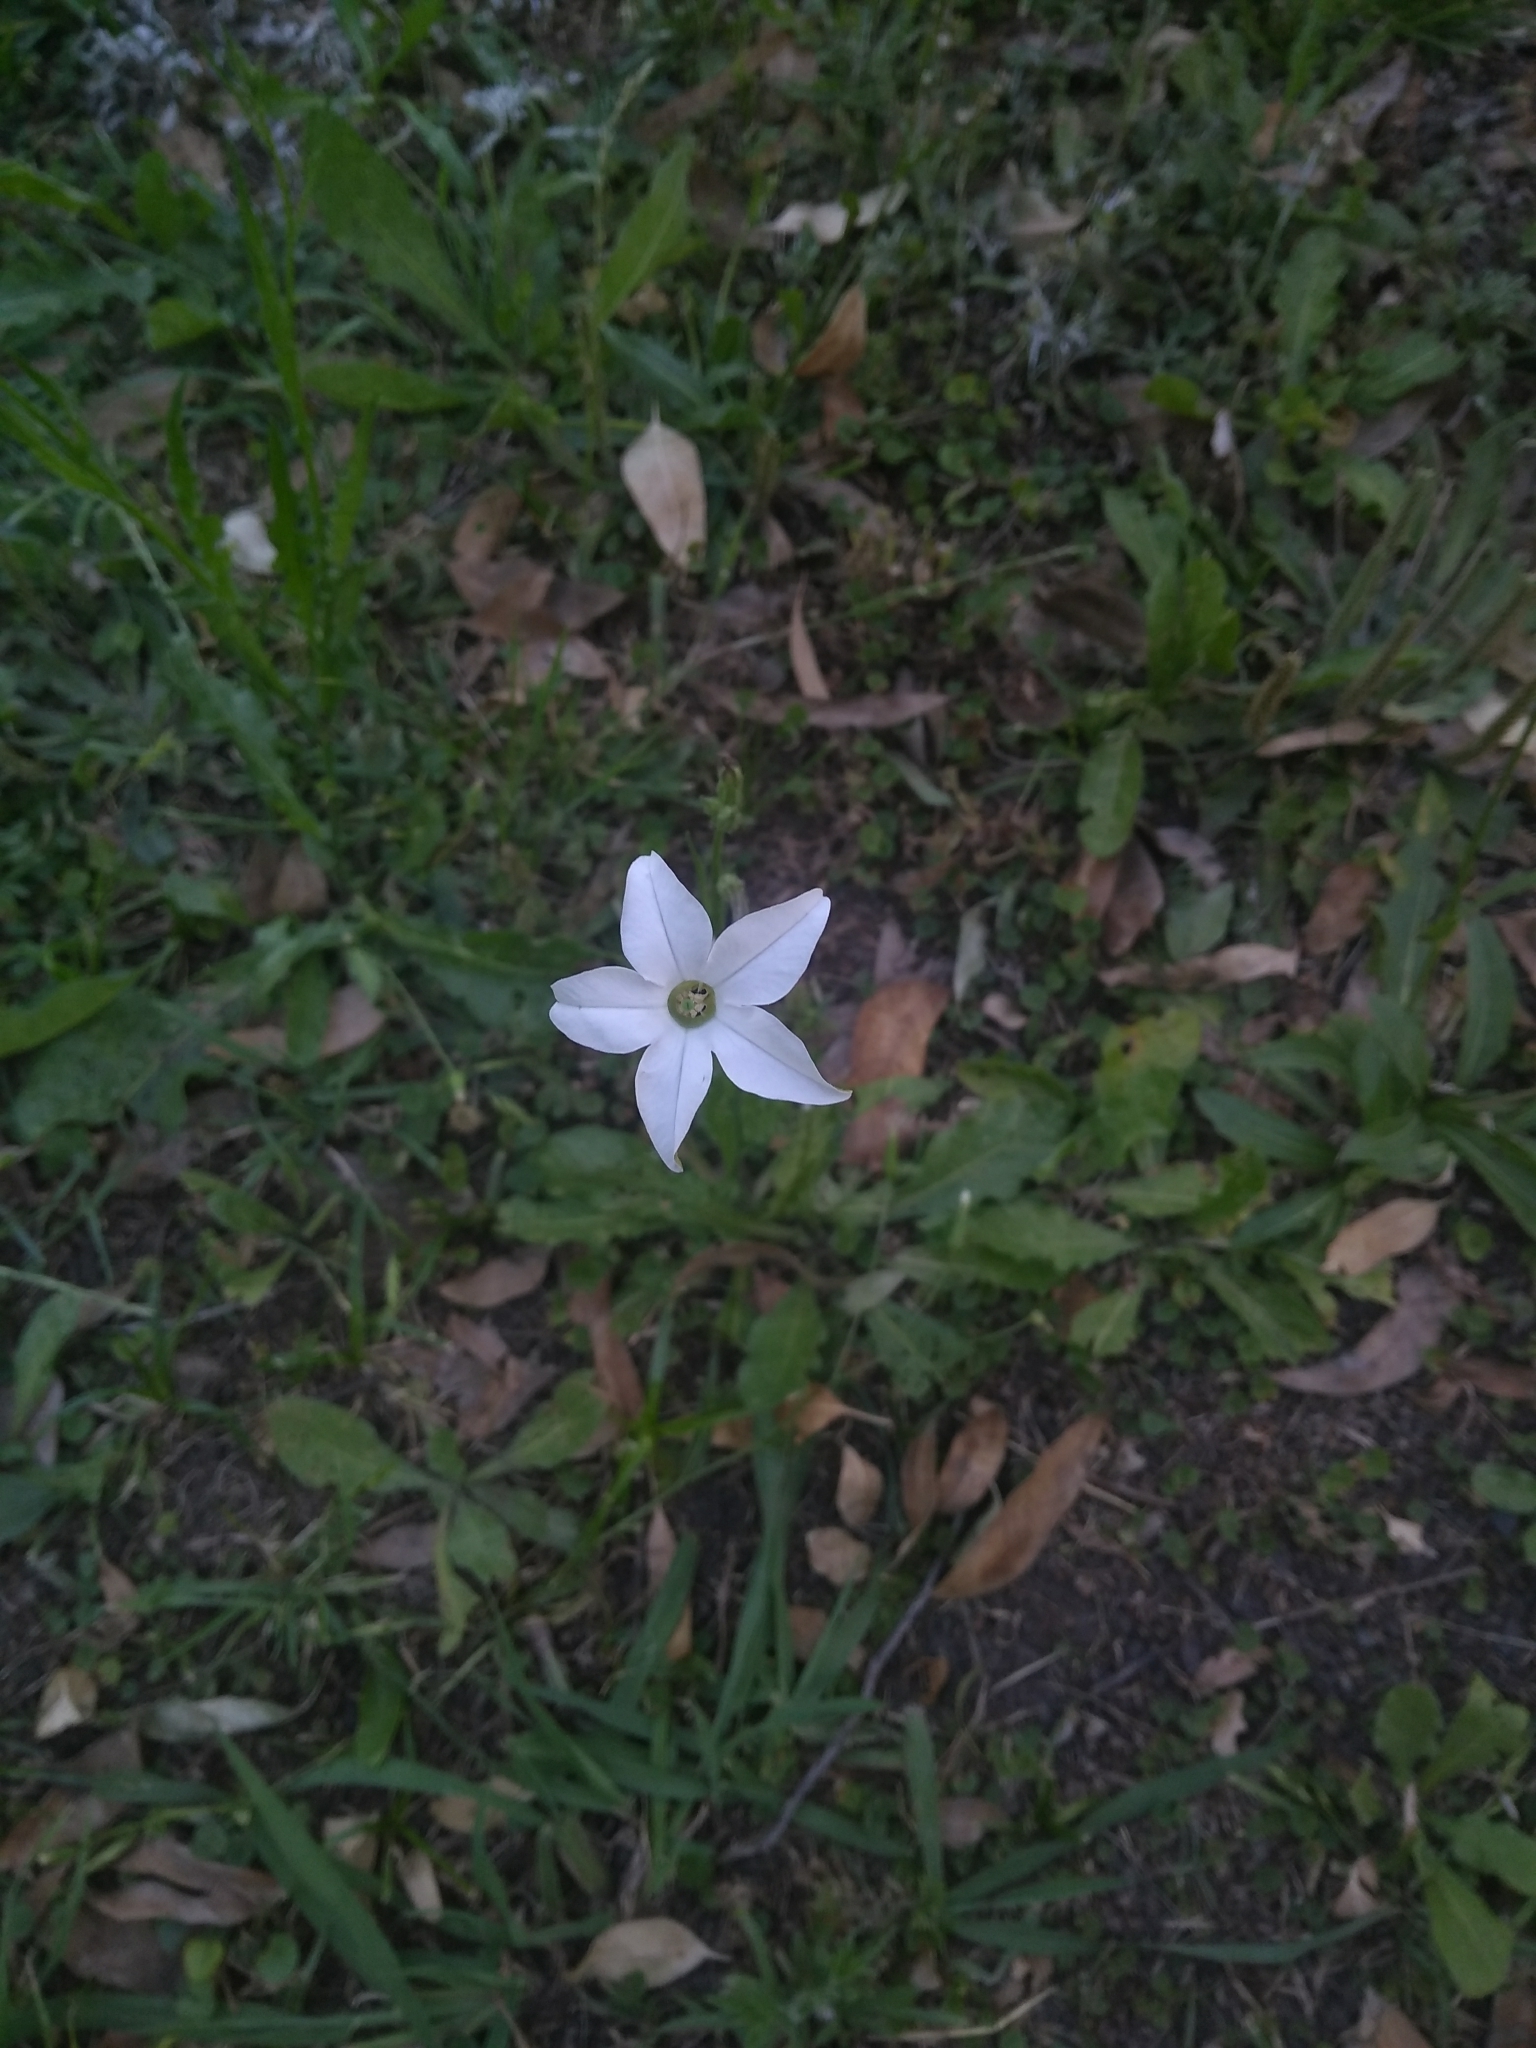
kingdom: Plantae
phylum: Tracheophyta
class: Magnoliopsida
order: Solanales
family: Solanaceae
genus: Nicotiana
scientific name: Nicotiana longiflora
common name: Long-flowered tobacco
